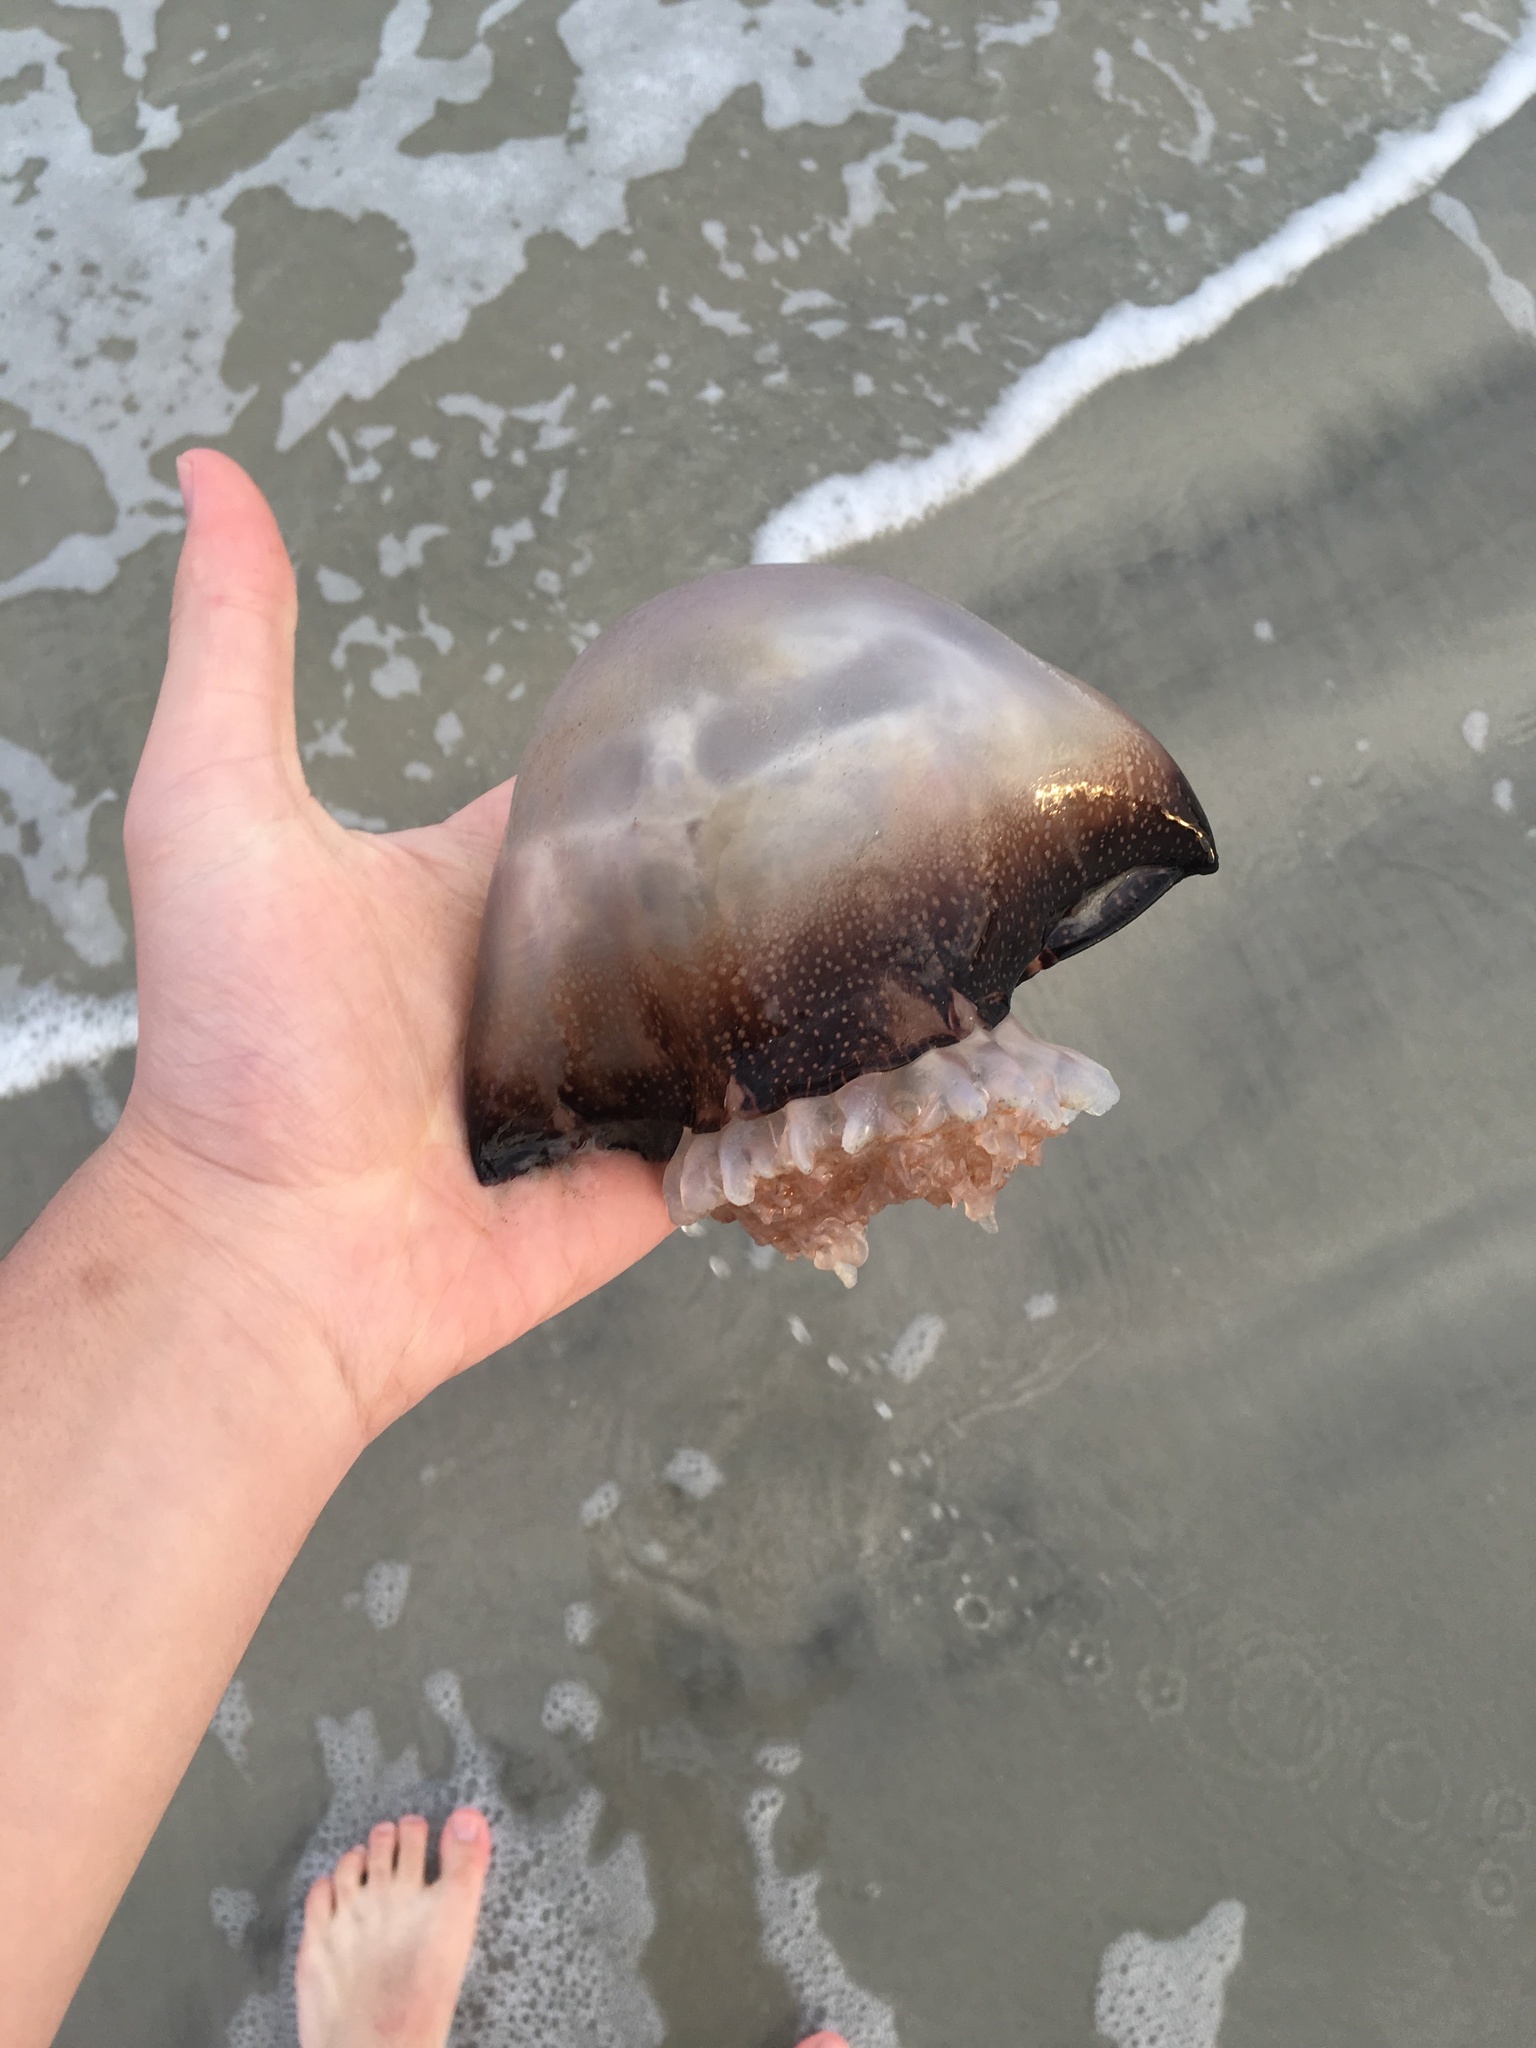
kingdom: Animalia
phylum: Cnidaria
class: Scyphozoa
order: Rhizostomeae
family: Stomolophidae
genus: Stomolophus
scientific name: Stomolophus meleagris
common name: Cabbagehead
